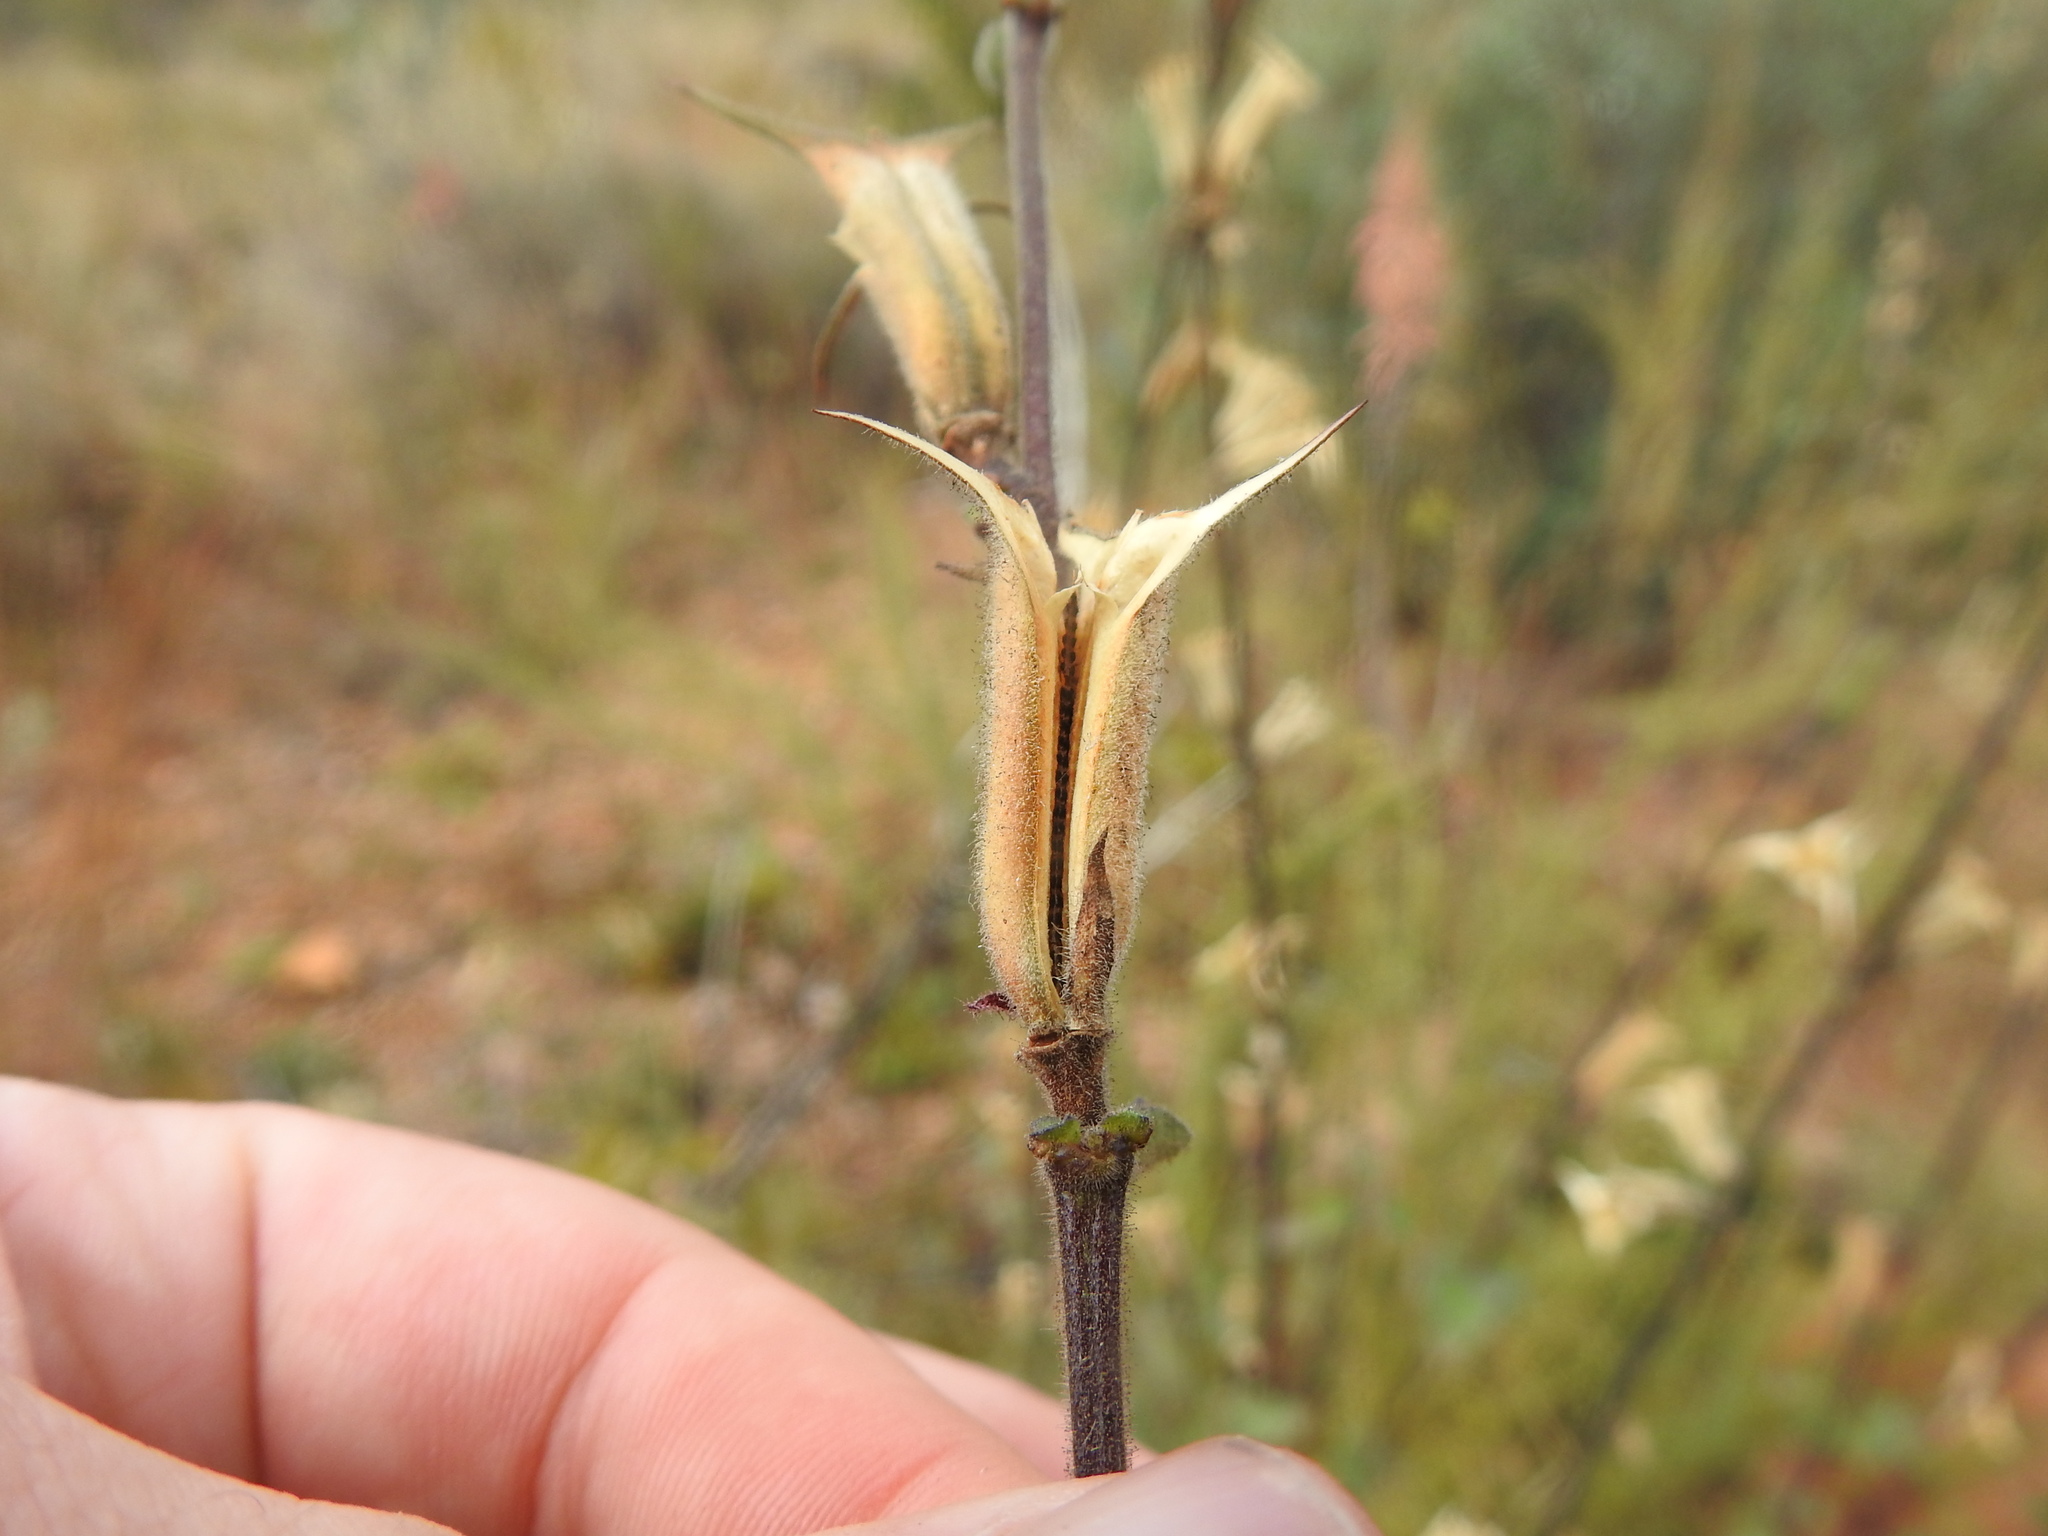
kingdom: Plantae
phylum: Tracheophyta
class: Magnoliopsida
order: Lamiales
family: Pedaliaceae
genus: Sesamum
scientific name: Sesamum trilobum
